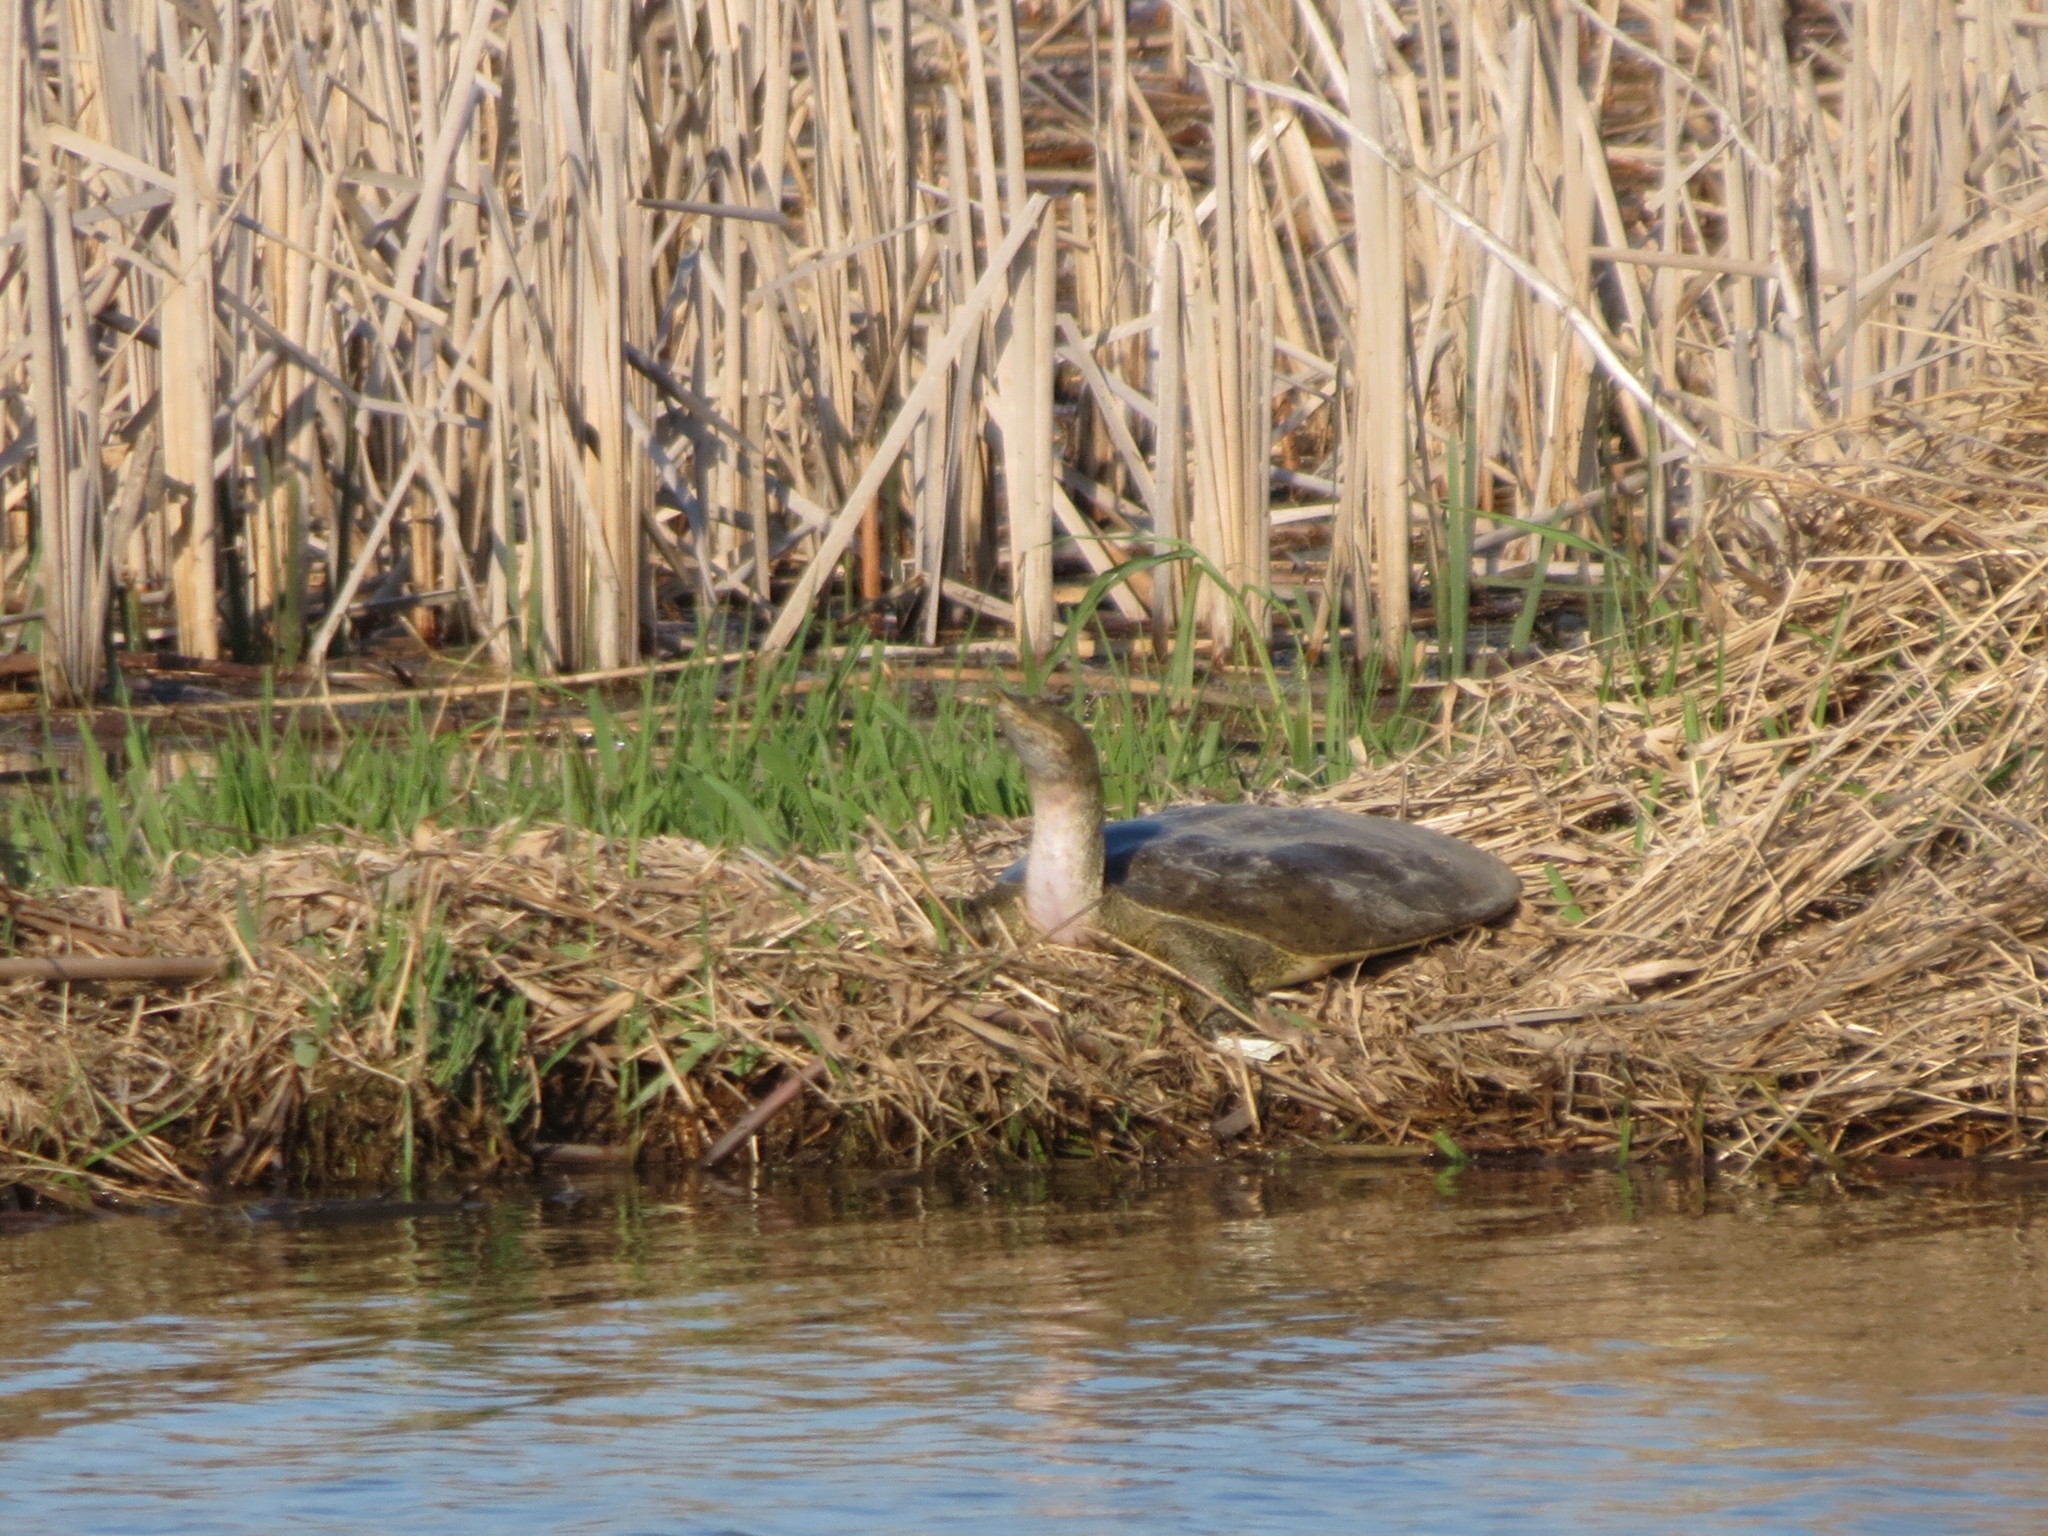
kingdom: Animalia
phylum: Chordata
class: Testudines
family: Trionychidae
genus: Apalone
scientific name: Apalone spinifera
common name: Spiny softshell turtle
